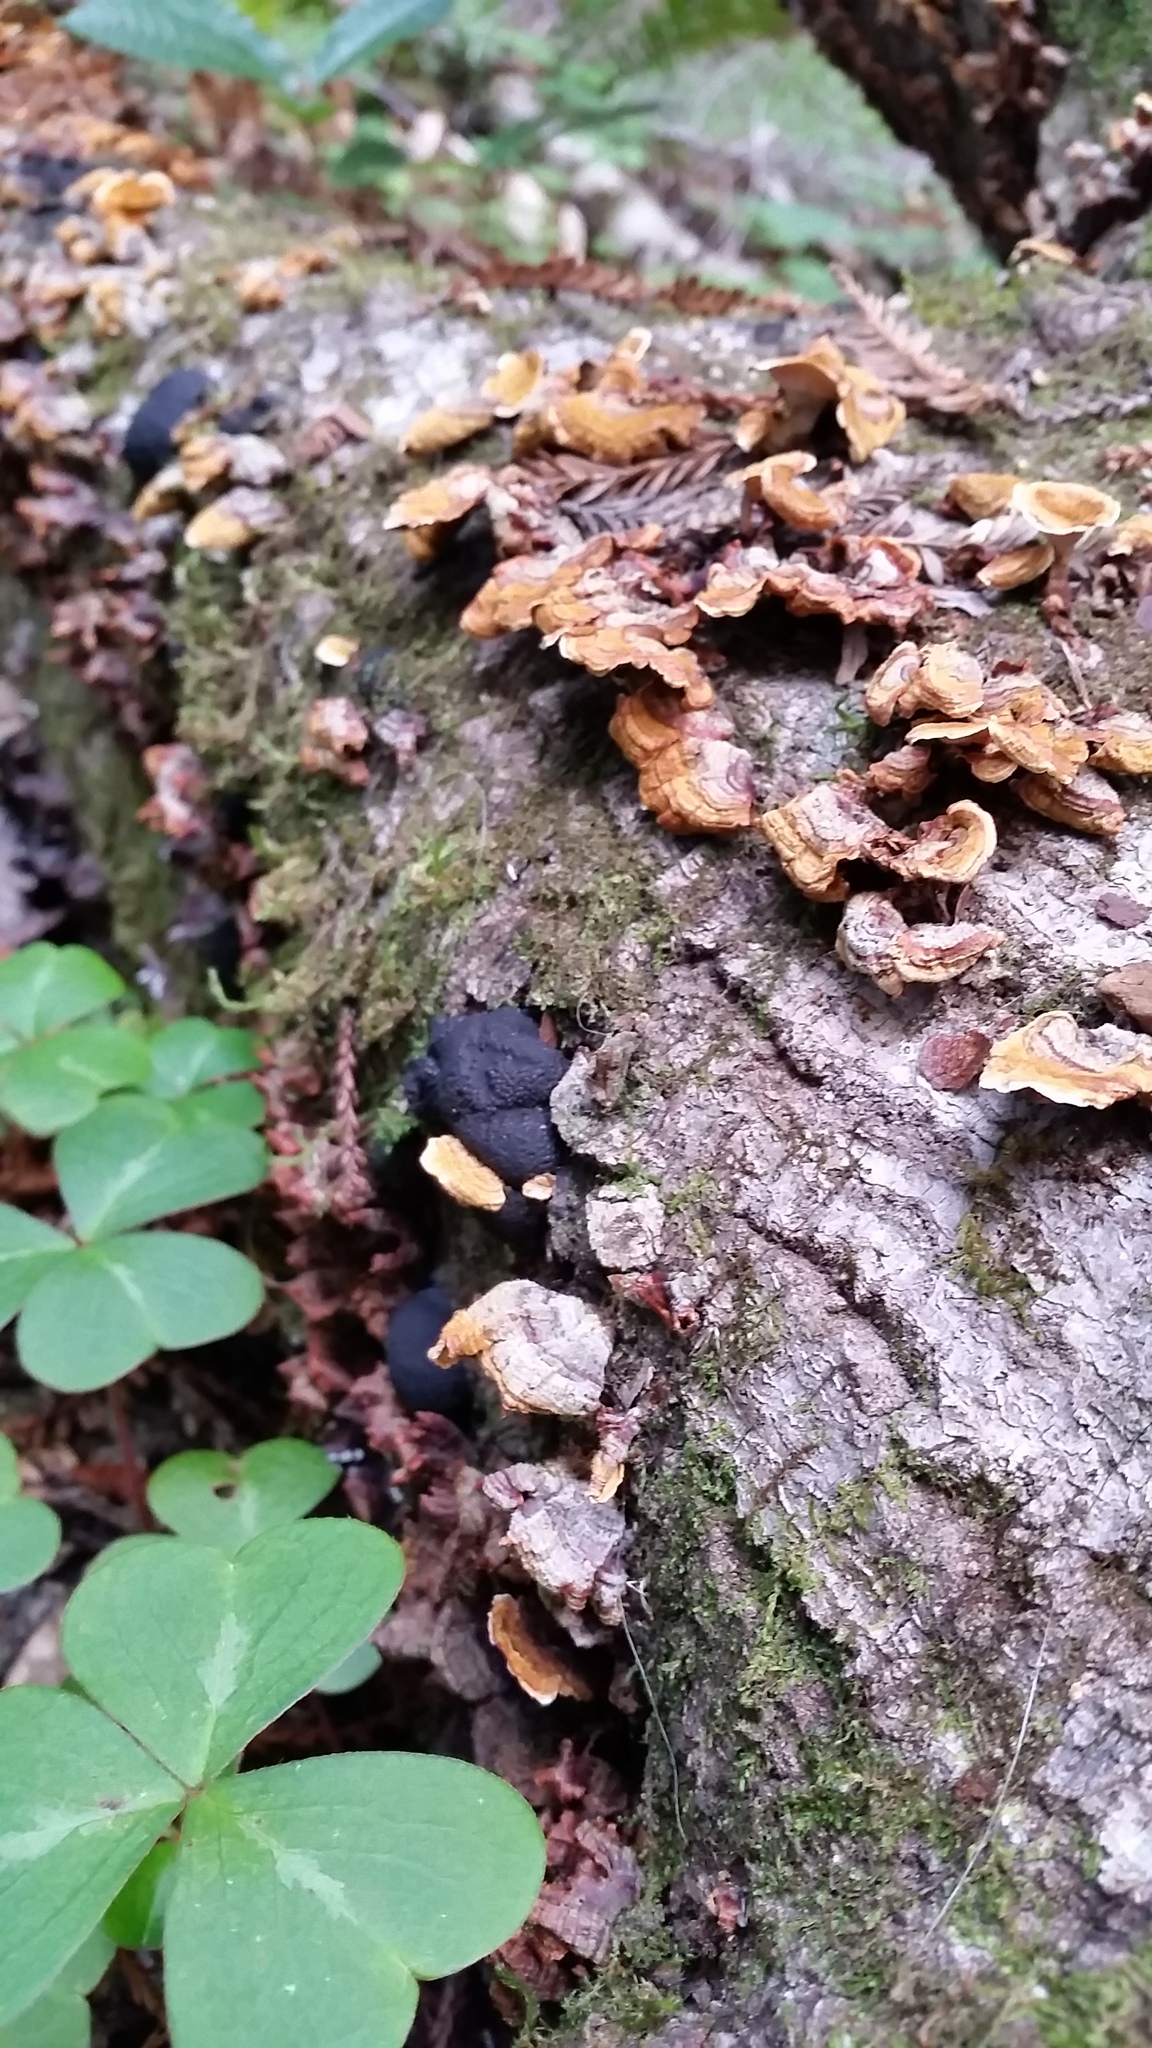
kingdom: Fungi
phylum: Ascomycota
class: Sordariomycetes
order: Xylariales
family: Hypoxylaceae
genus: Annulohypoxylon
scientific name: Annulohypoxylon thouarsianum
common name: Cramp balls
